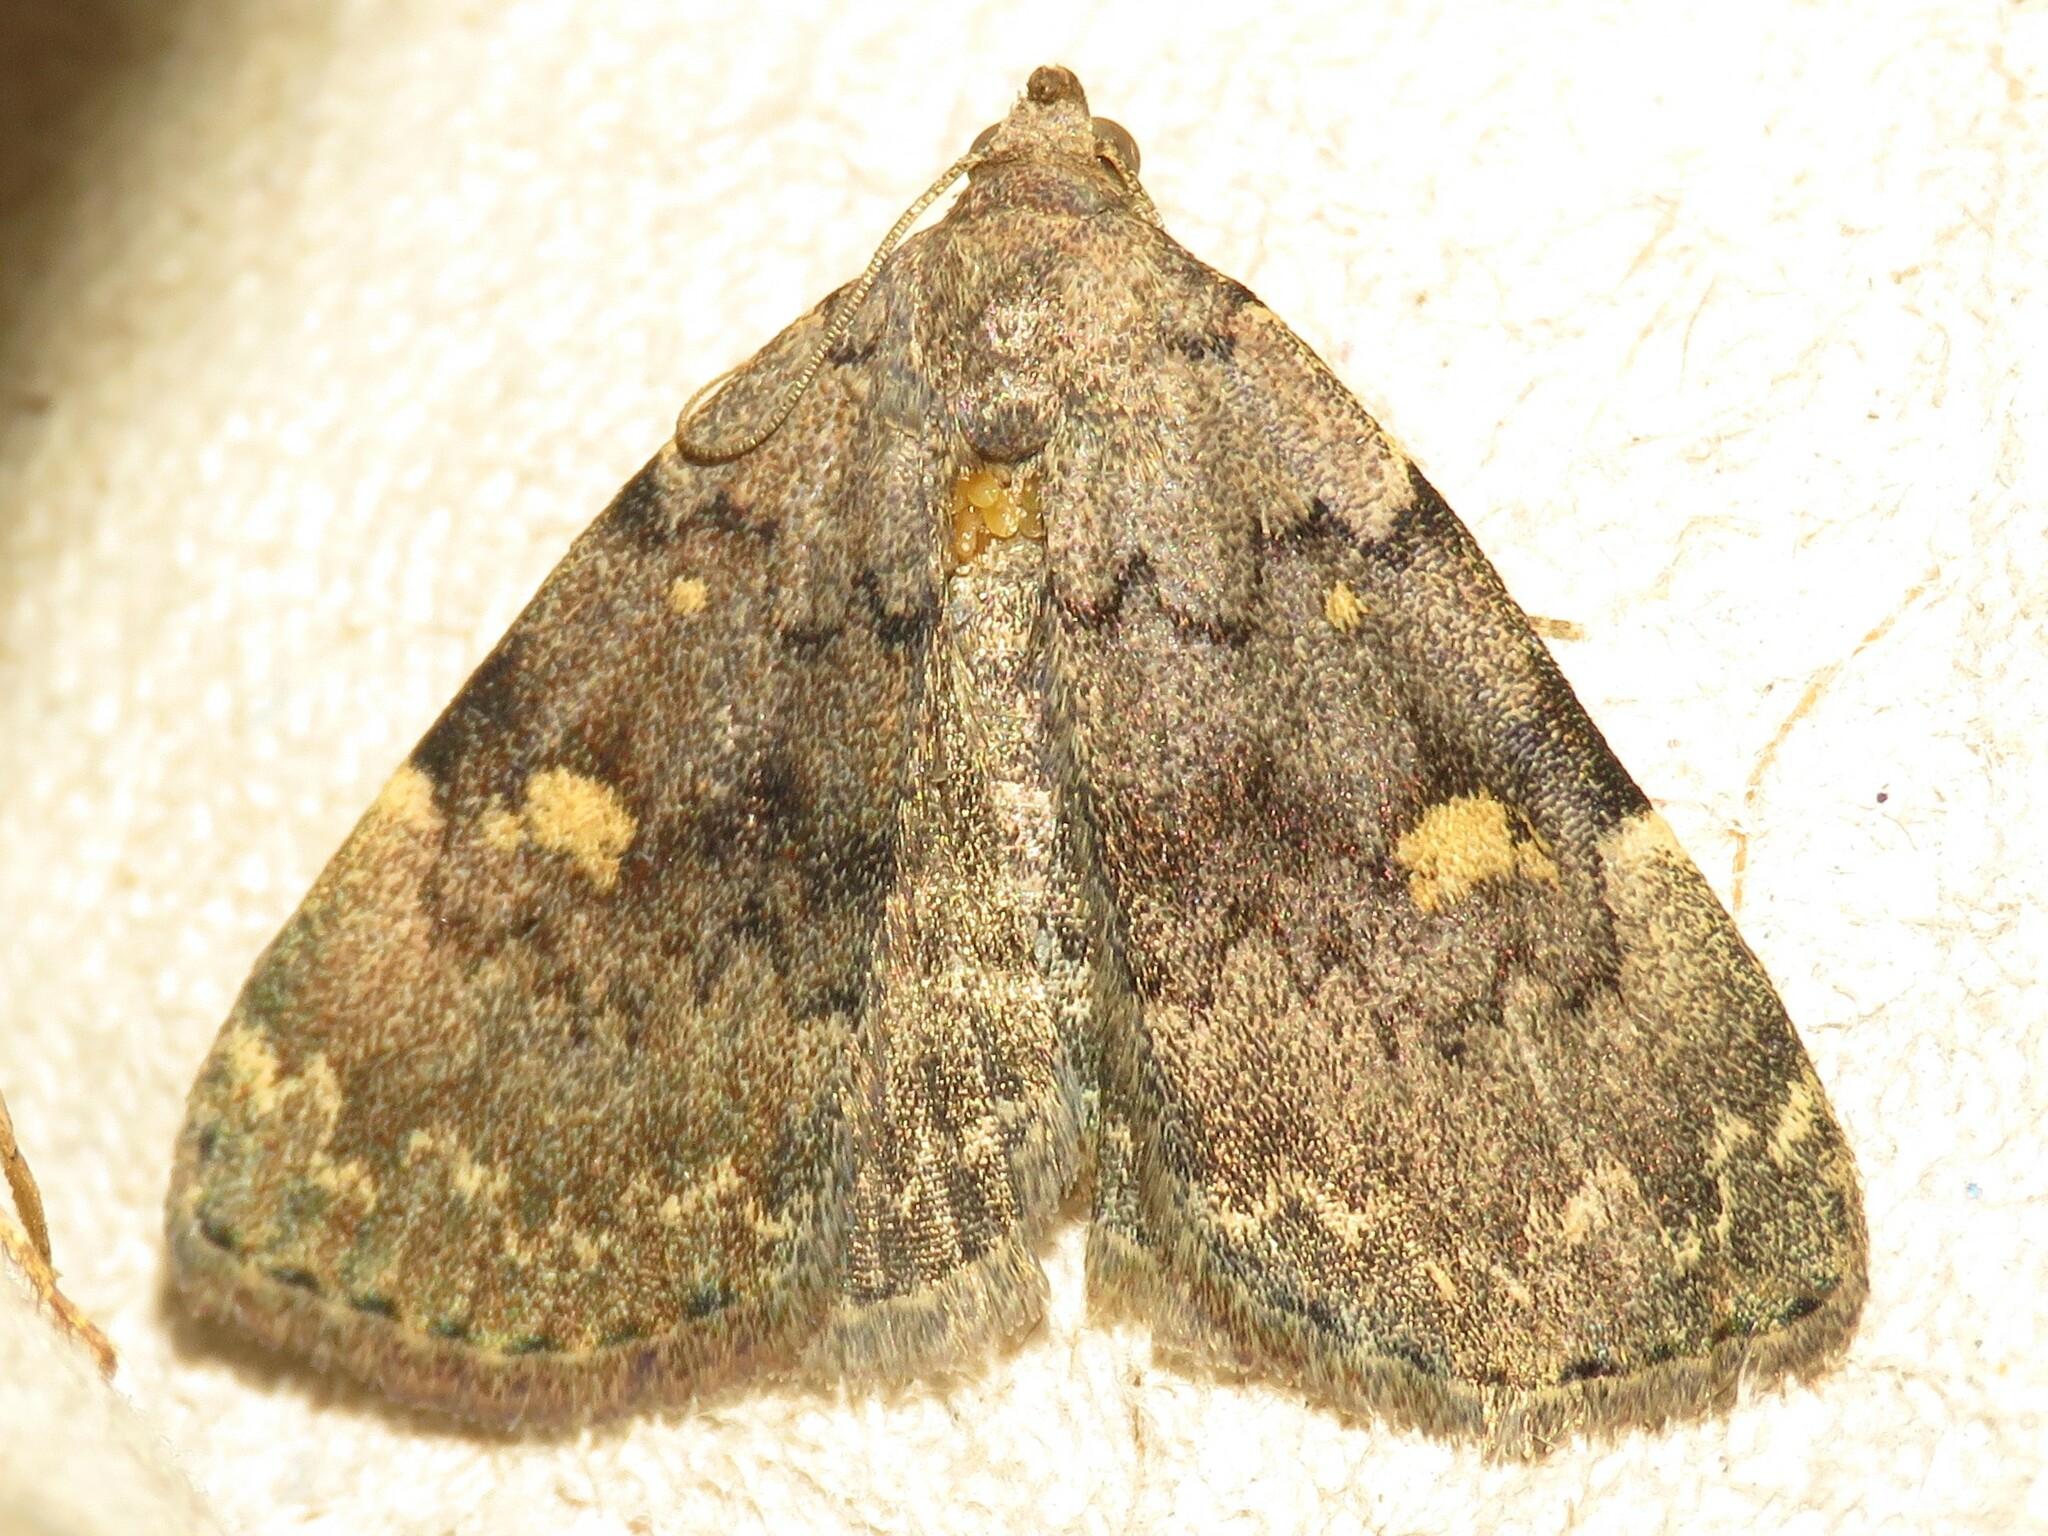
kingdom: Animalia
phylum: Arthropoda
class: Insecta
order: Lepidoptera
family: Erebidae
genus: Idia
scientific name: Idia aemula
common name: Common idia moth
